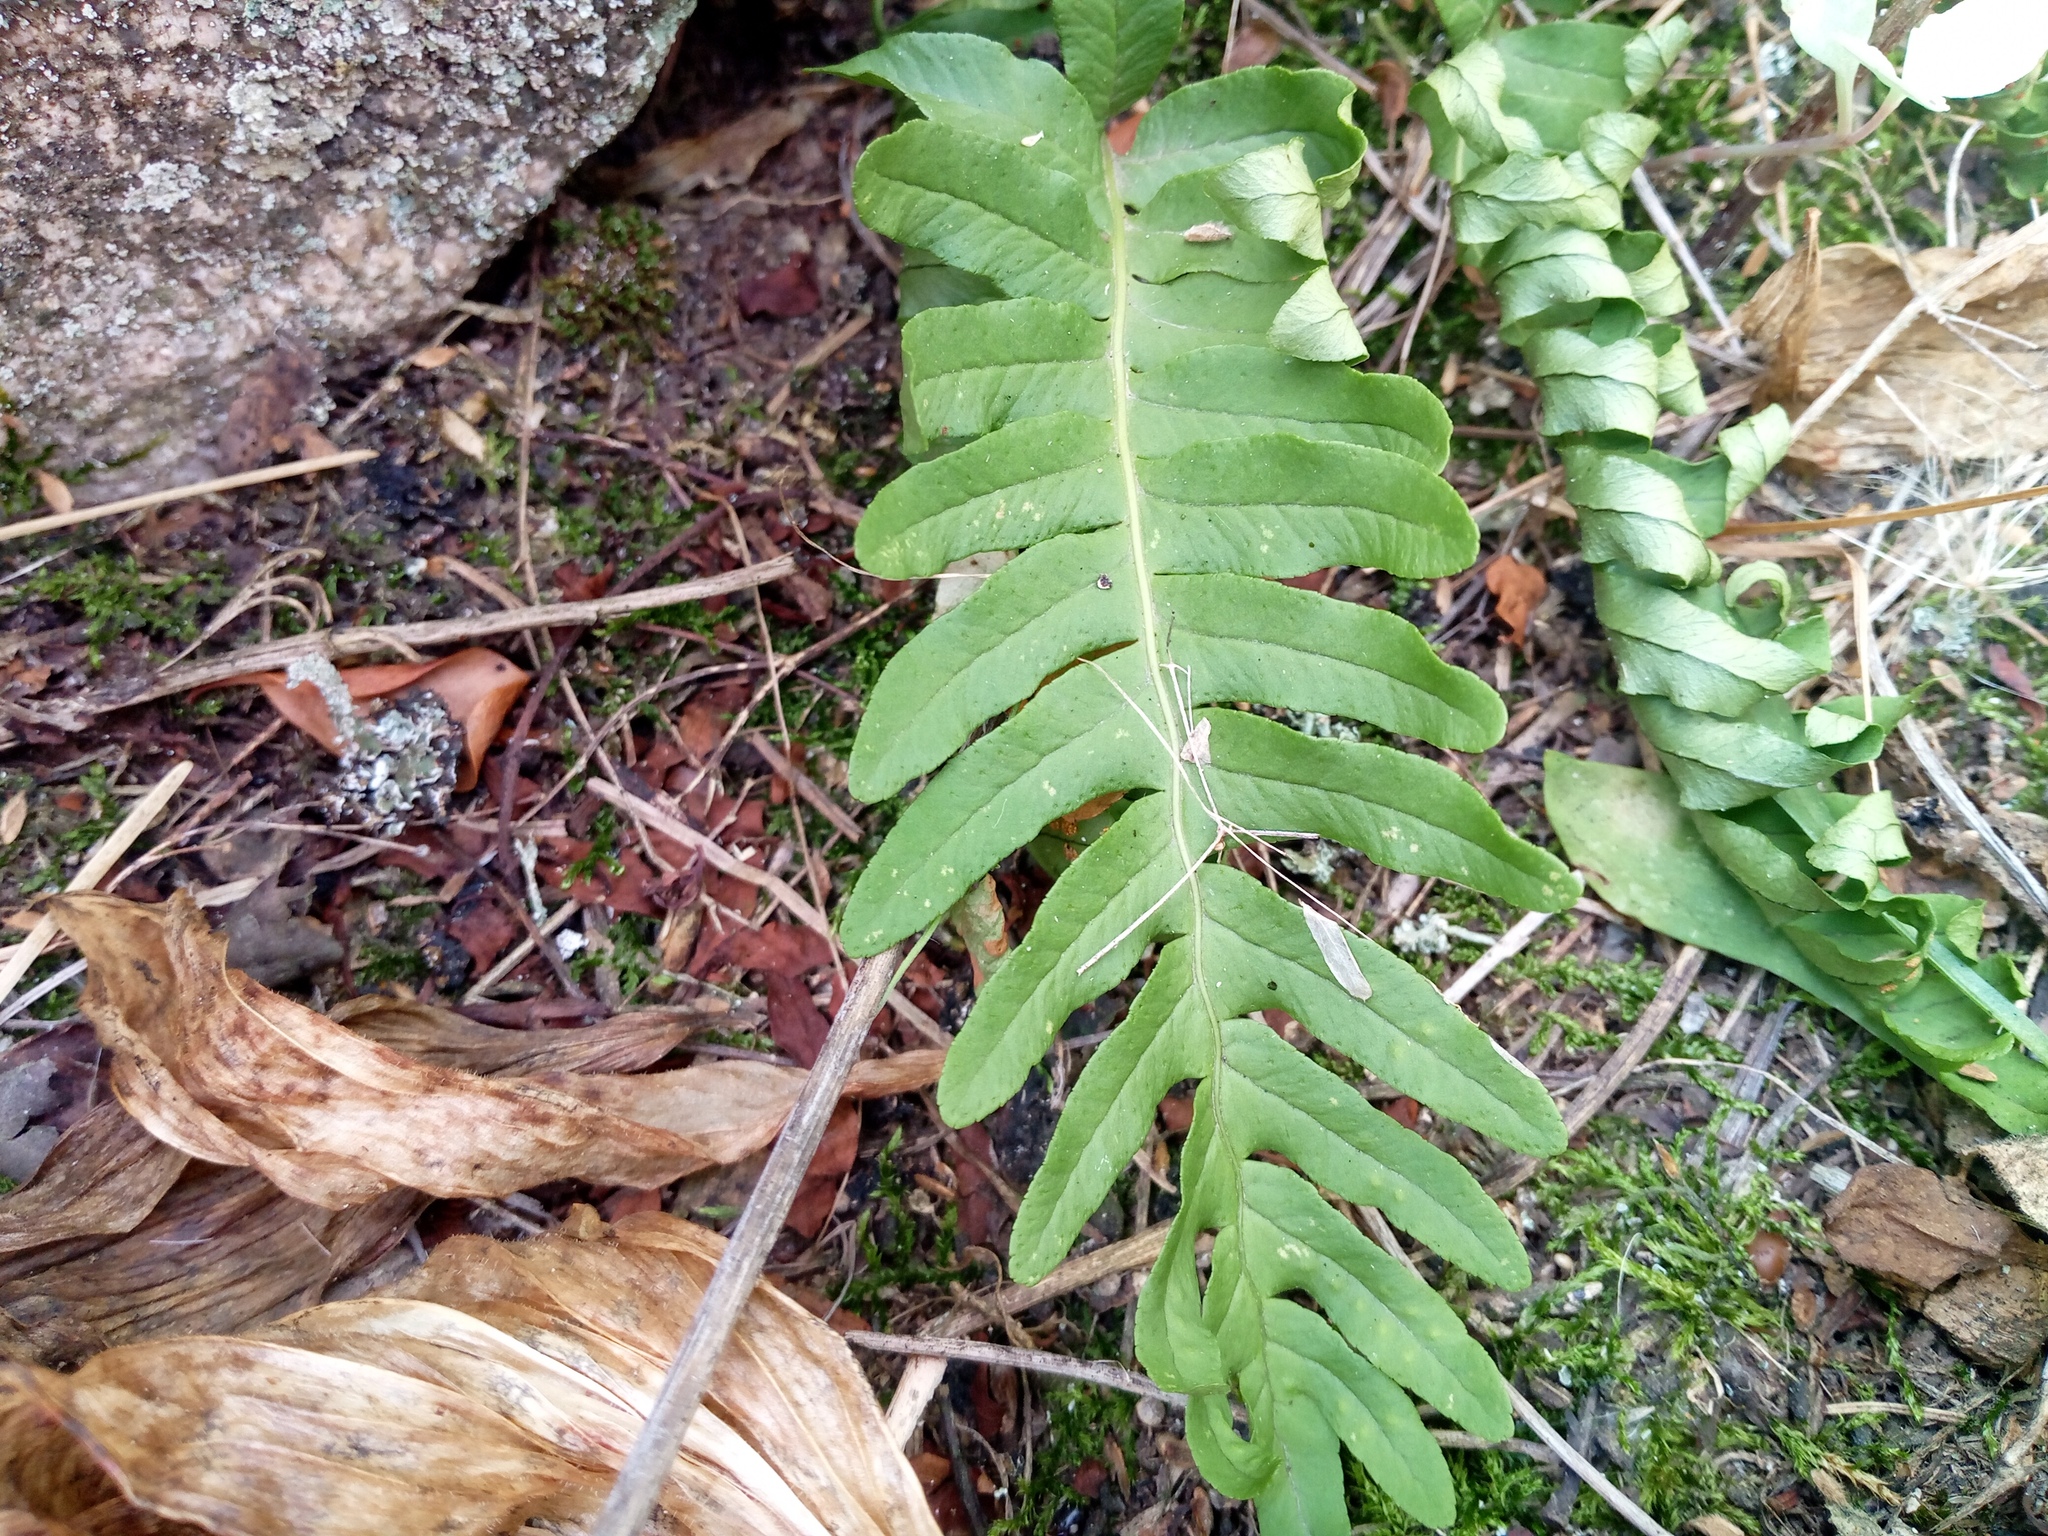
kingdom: Plantae
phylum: Tracheophyta
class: Polypodiopsida
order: Polypodiales
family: Polypodiaceae
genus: Polypodium
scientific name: Polypodium vulgare
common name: Common polypody
